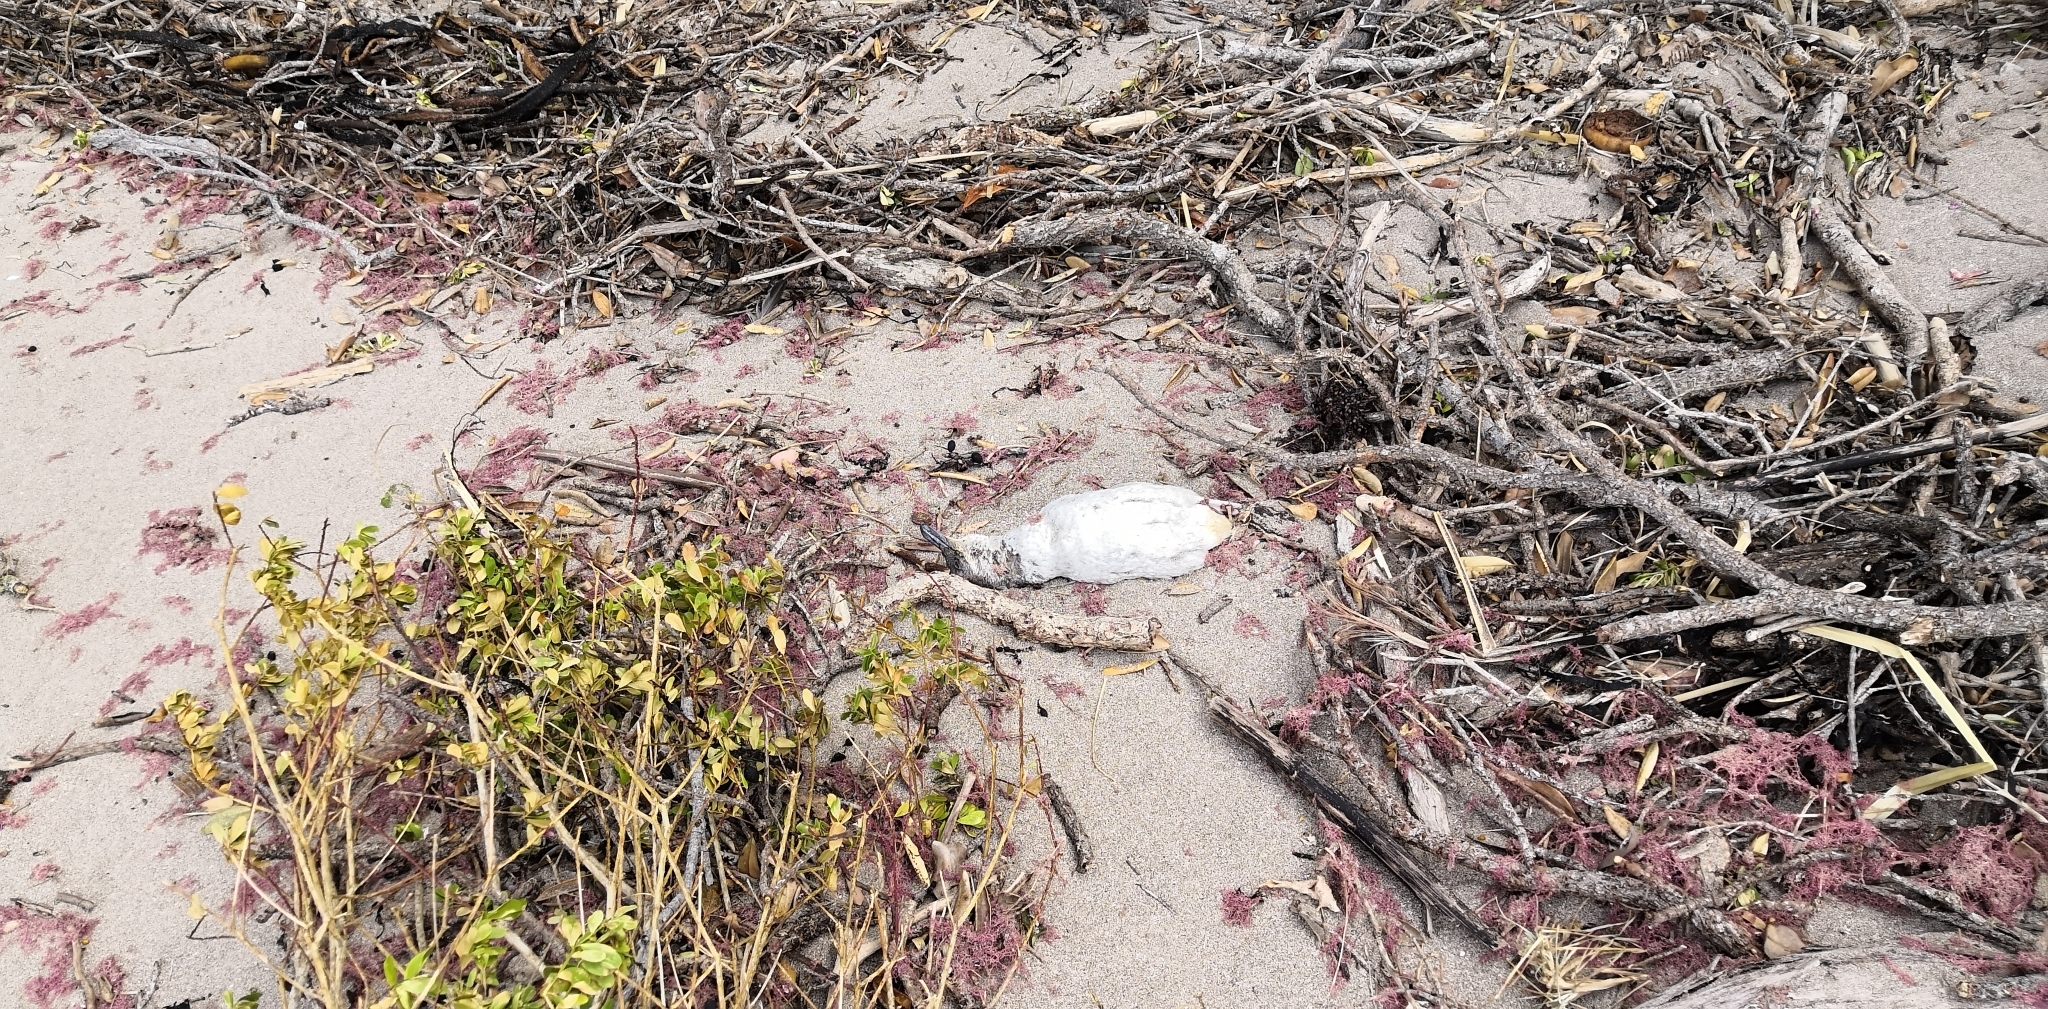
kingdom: Animalia
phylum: Chordata
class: Aves
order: Sphenisciformes
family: Spheniscidae
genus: Eudyptula
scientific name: Eudyptula minor
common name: Little penguin
